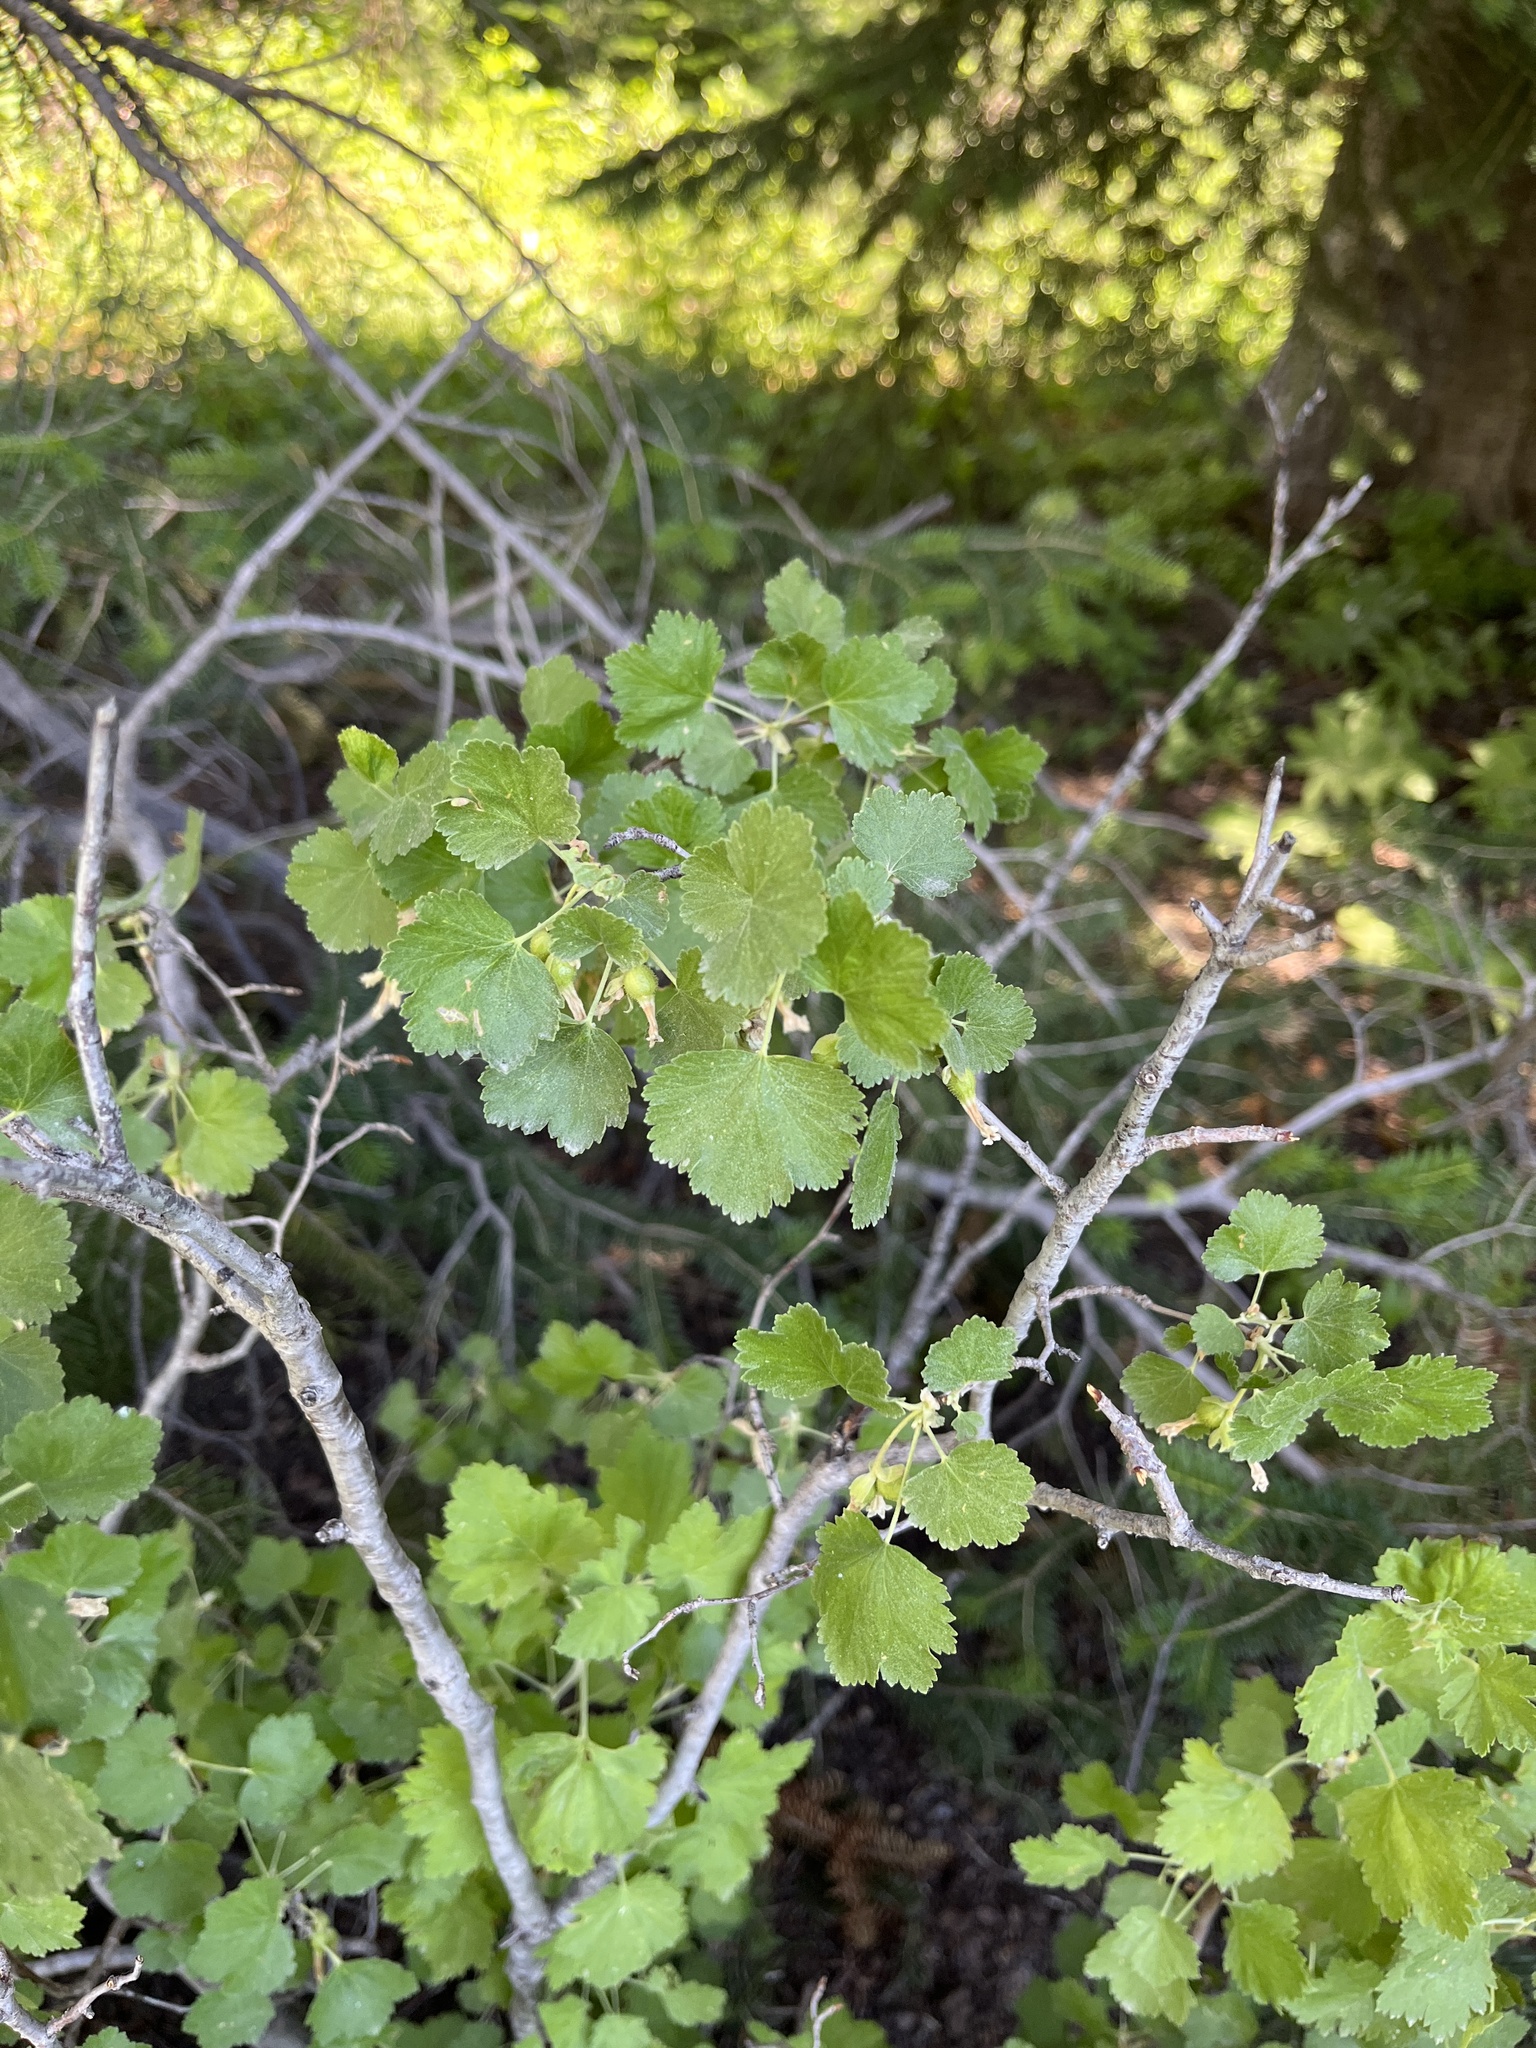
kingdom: Plantae
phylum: Tracheophyta
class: Magnoliopsida
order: Saxifragales
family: Grossulariaceae
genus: Ribes
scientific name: Ribes cereum
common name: Wax currant
